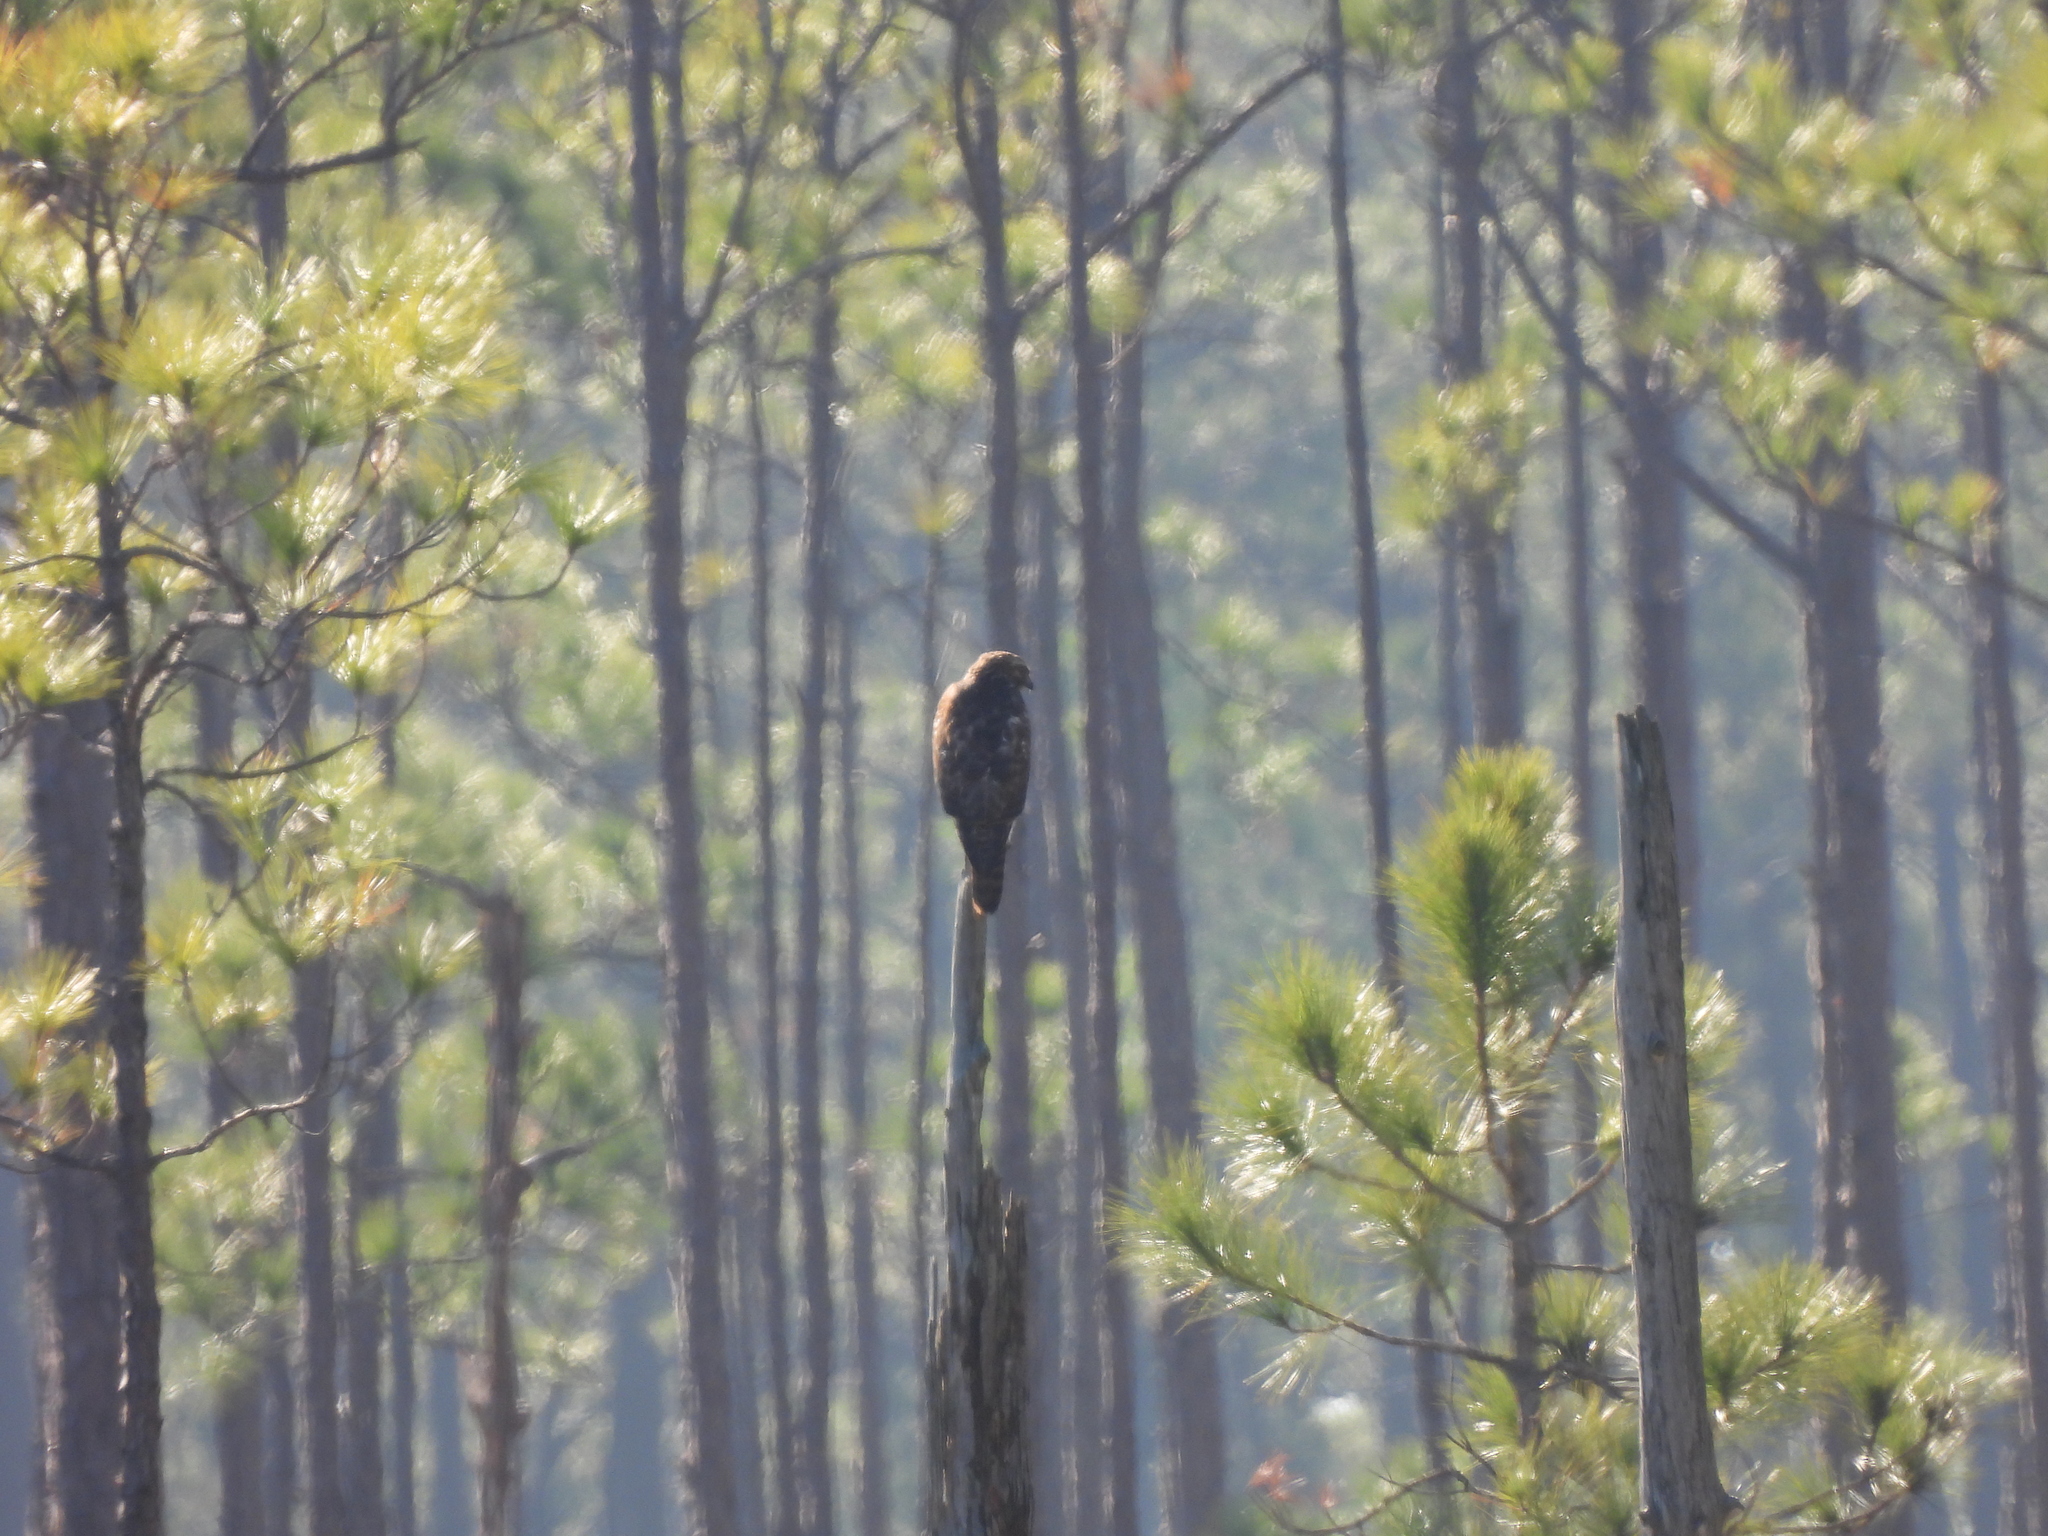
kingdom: Animalia
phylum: Chordata
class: Aves
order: Accipitriformes
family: Accipitridae
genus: Buteo
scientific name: Buteo lineatus
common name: Red-shouldered hawk
